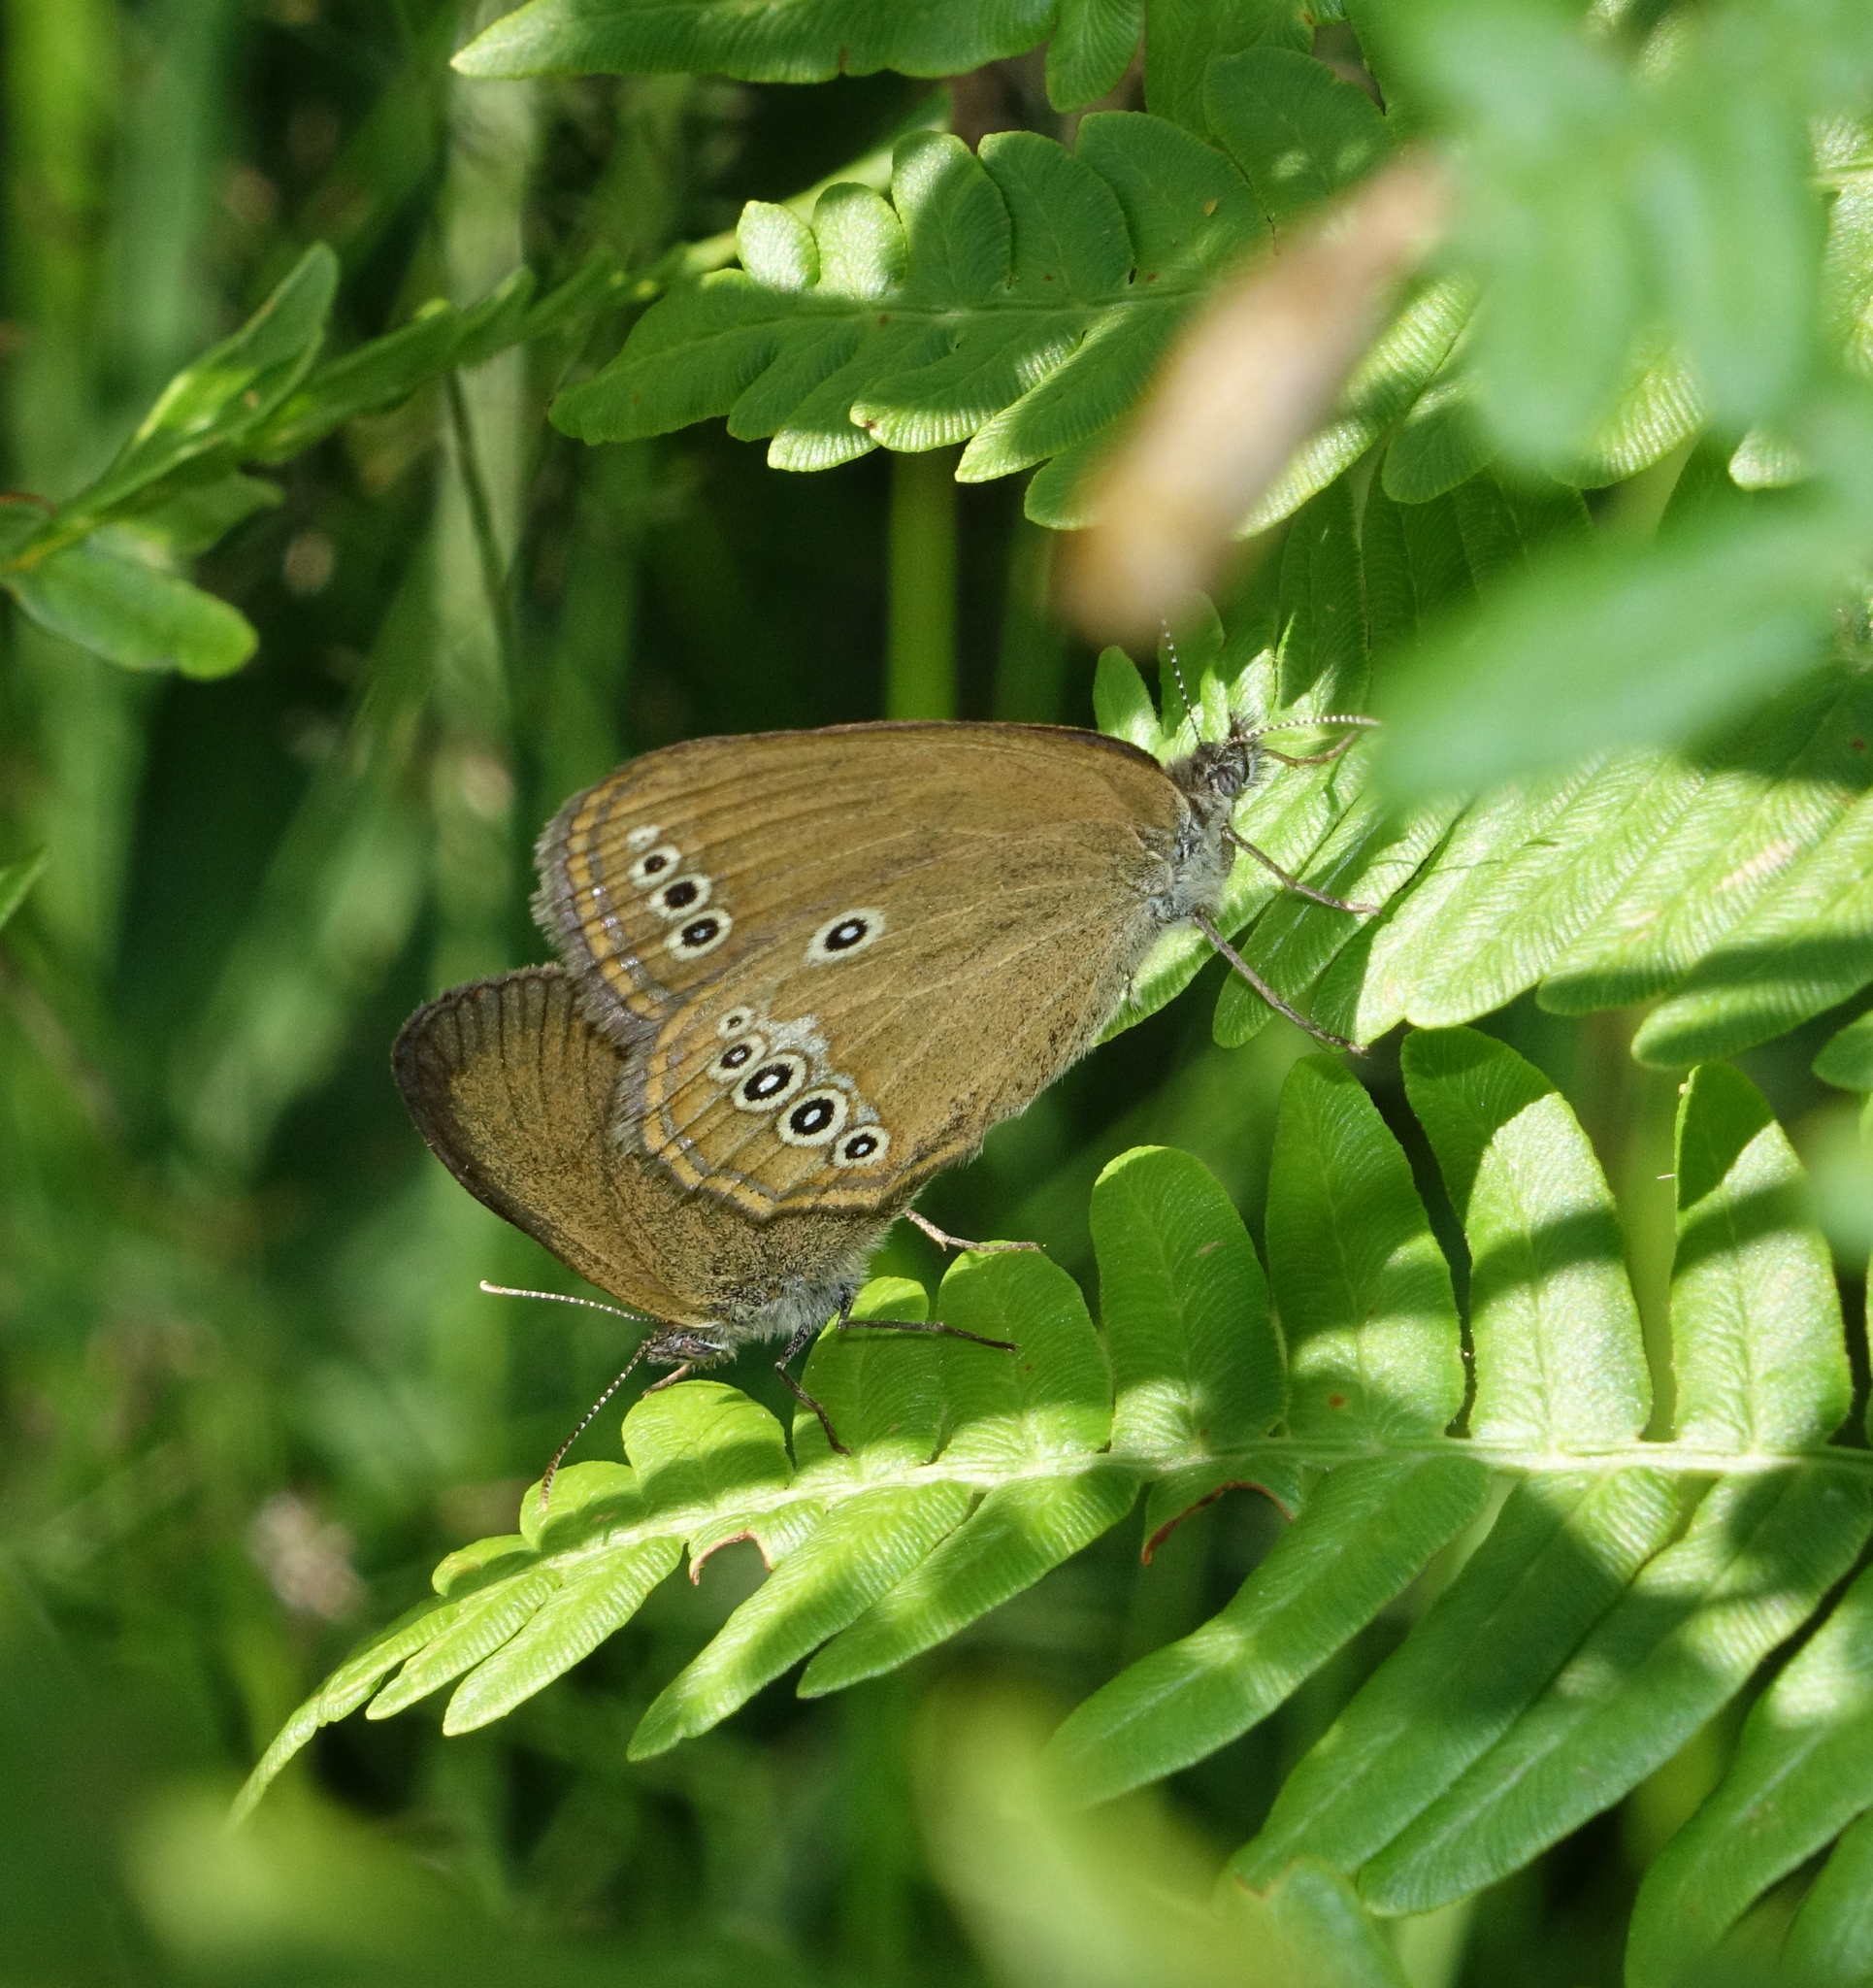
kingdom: Animalia
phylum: Arthropoda
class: Insecta
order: Lepidoptera
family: Nymphalidae
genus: Coenonympha
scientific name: Coenonympha oedippus
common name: False ringlet
